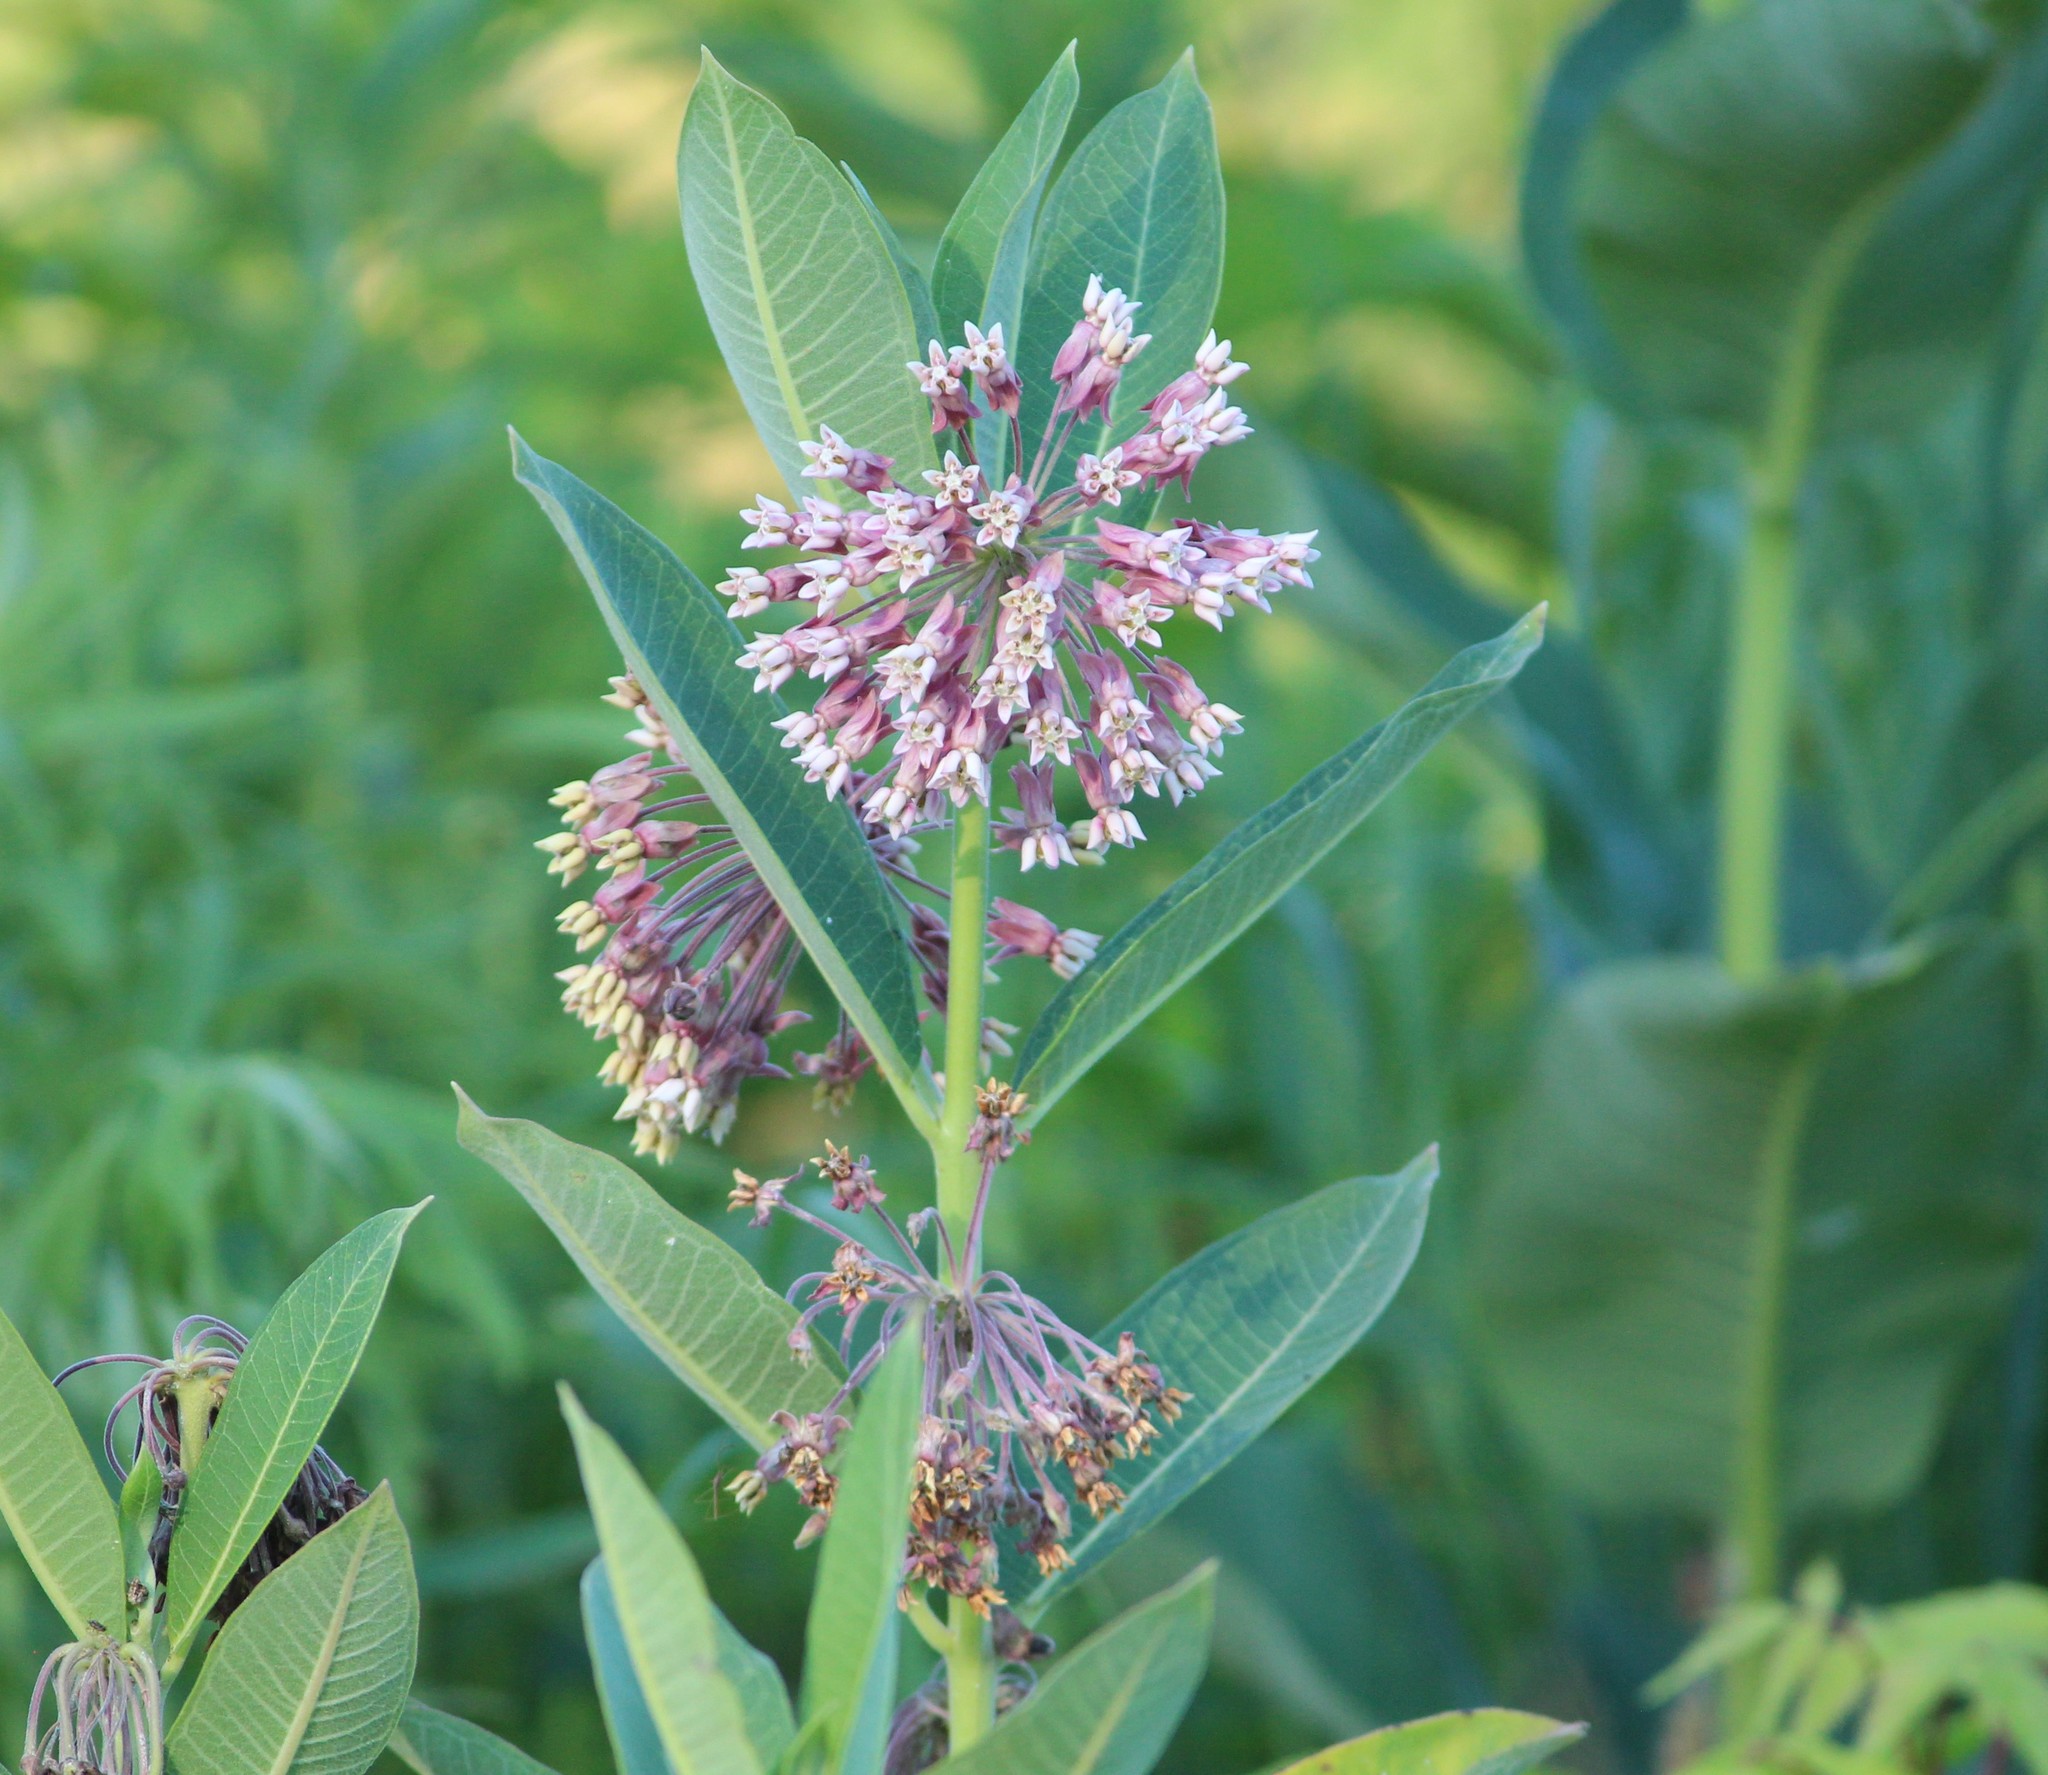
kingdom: Plantae
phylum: Tracheophyta
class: Magnoliopsida
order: Gentianales
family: Apocynaceae
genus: Asclepias
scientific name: Asclepias syriaca
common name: Common milkweed
